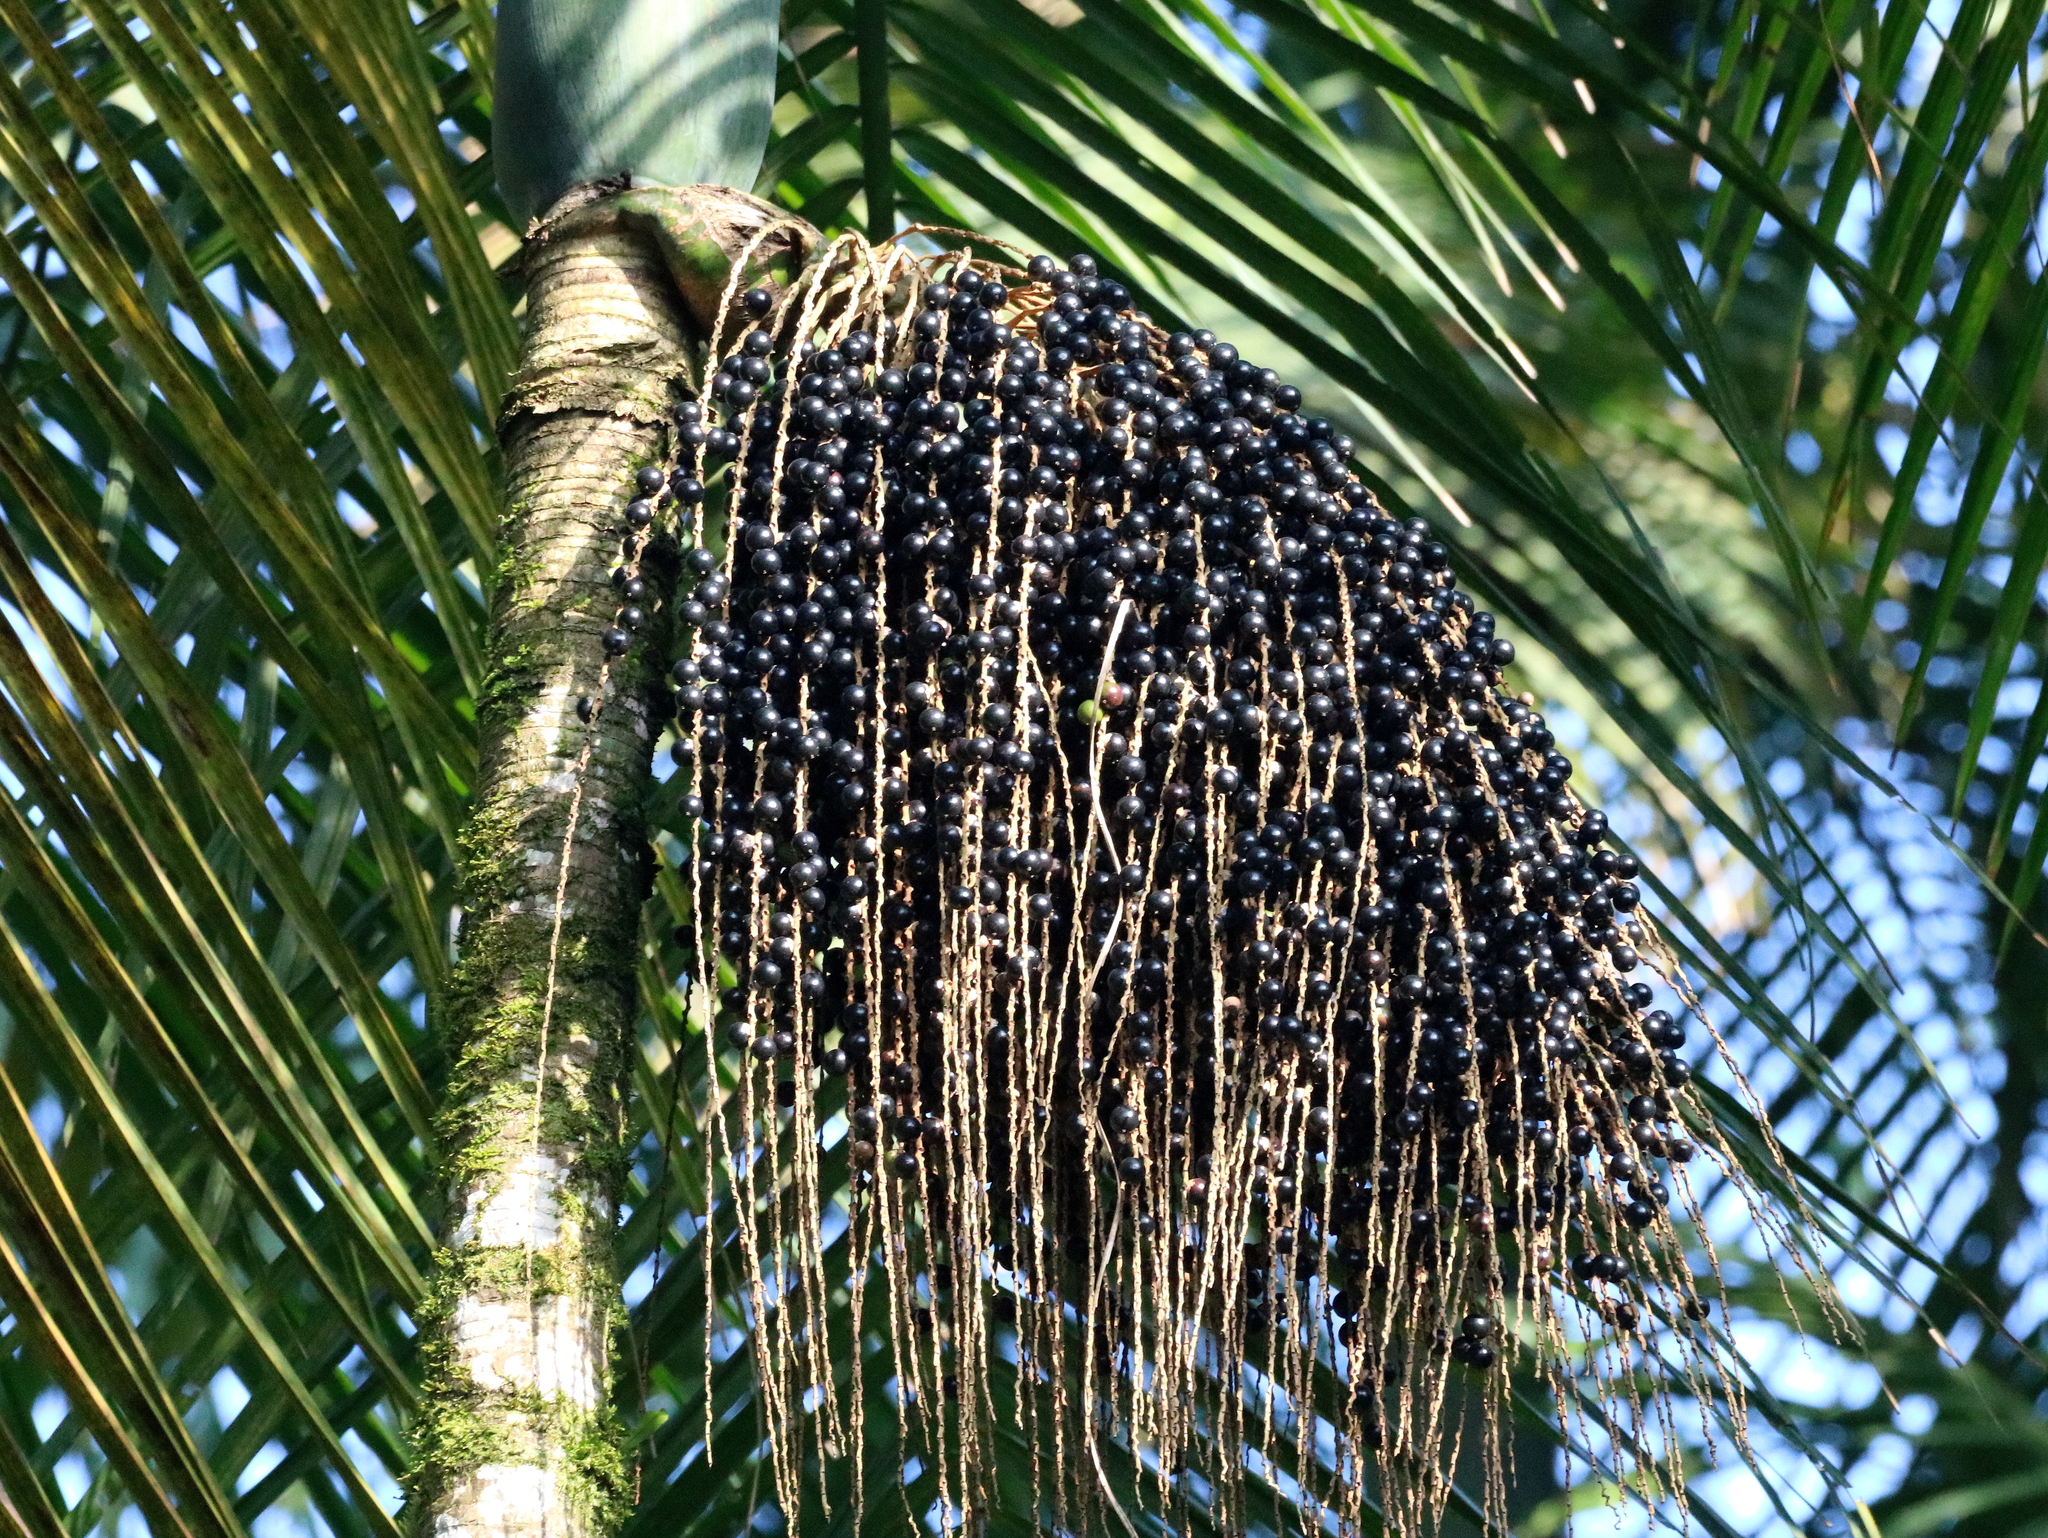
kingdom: Plantae
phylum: Tracheophyta
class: Liliopsida
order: Arecales
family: Arecaceae
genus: Euterpe
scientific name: Euterpe edulis
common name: Assai palm
